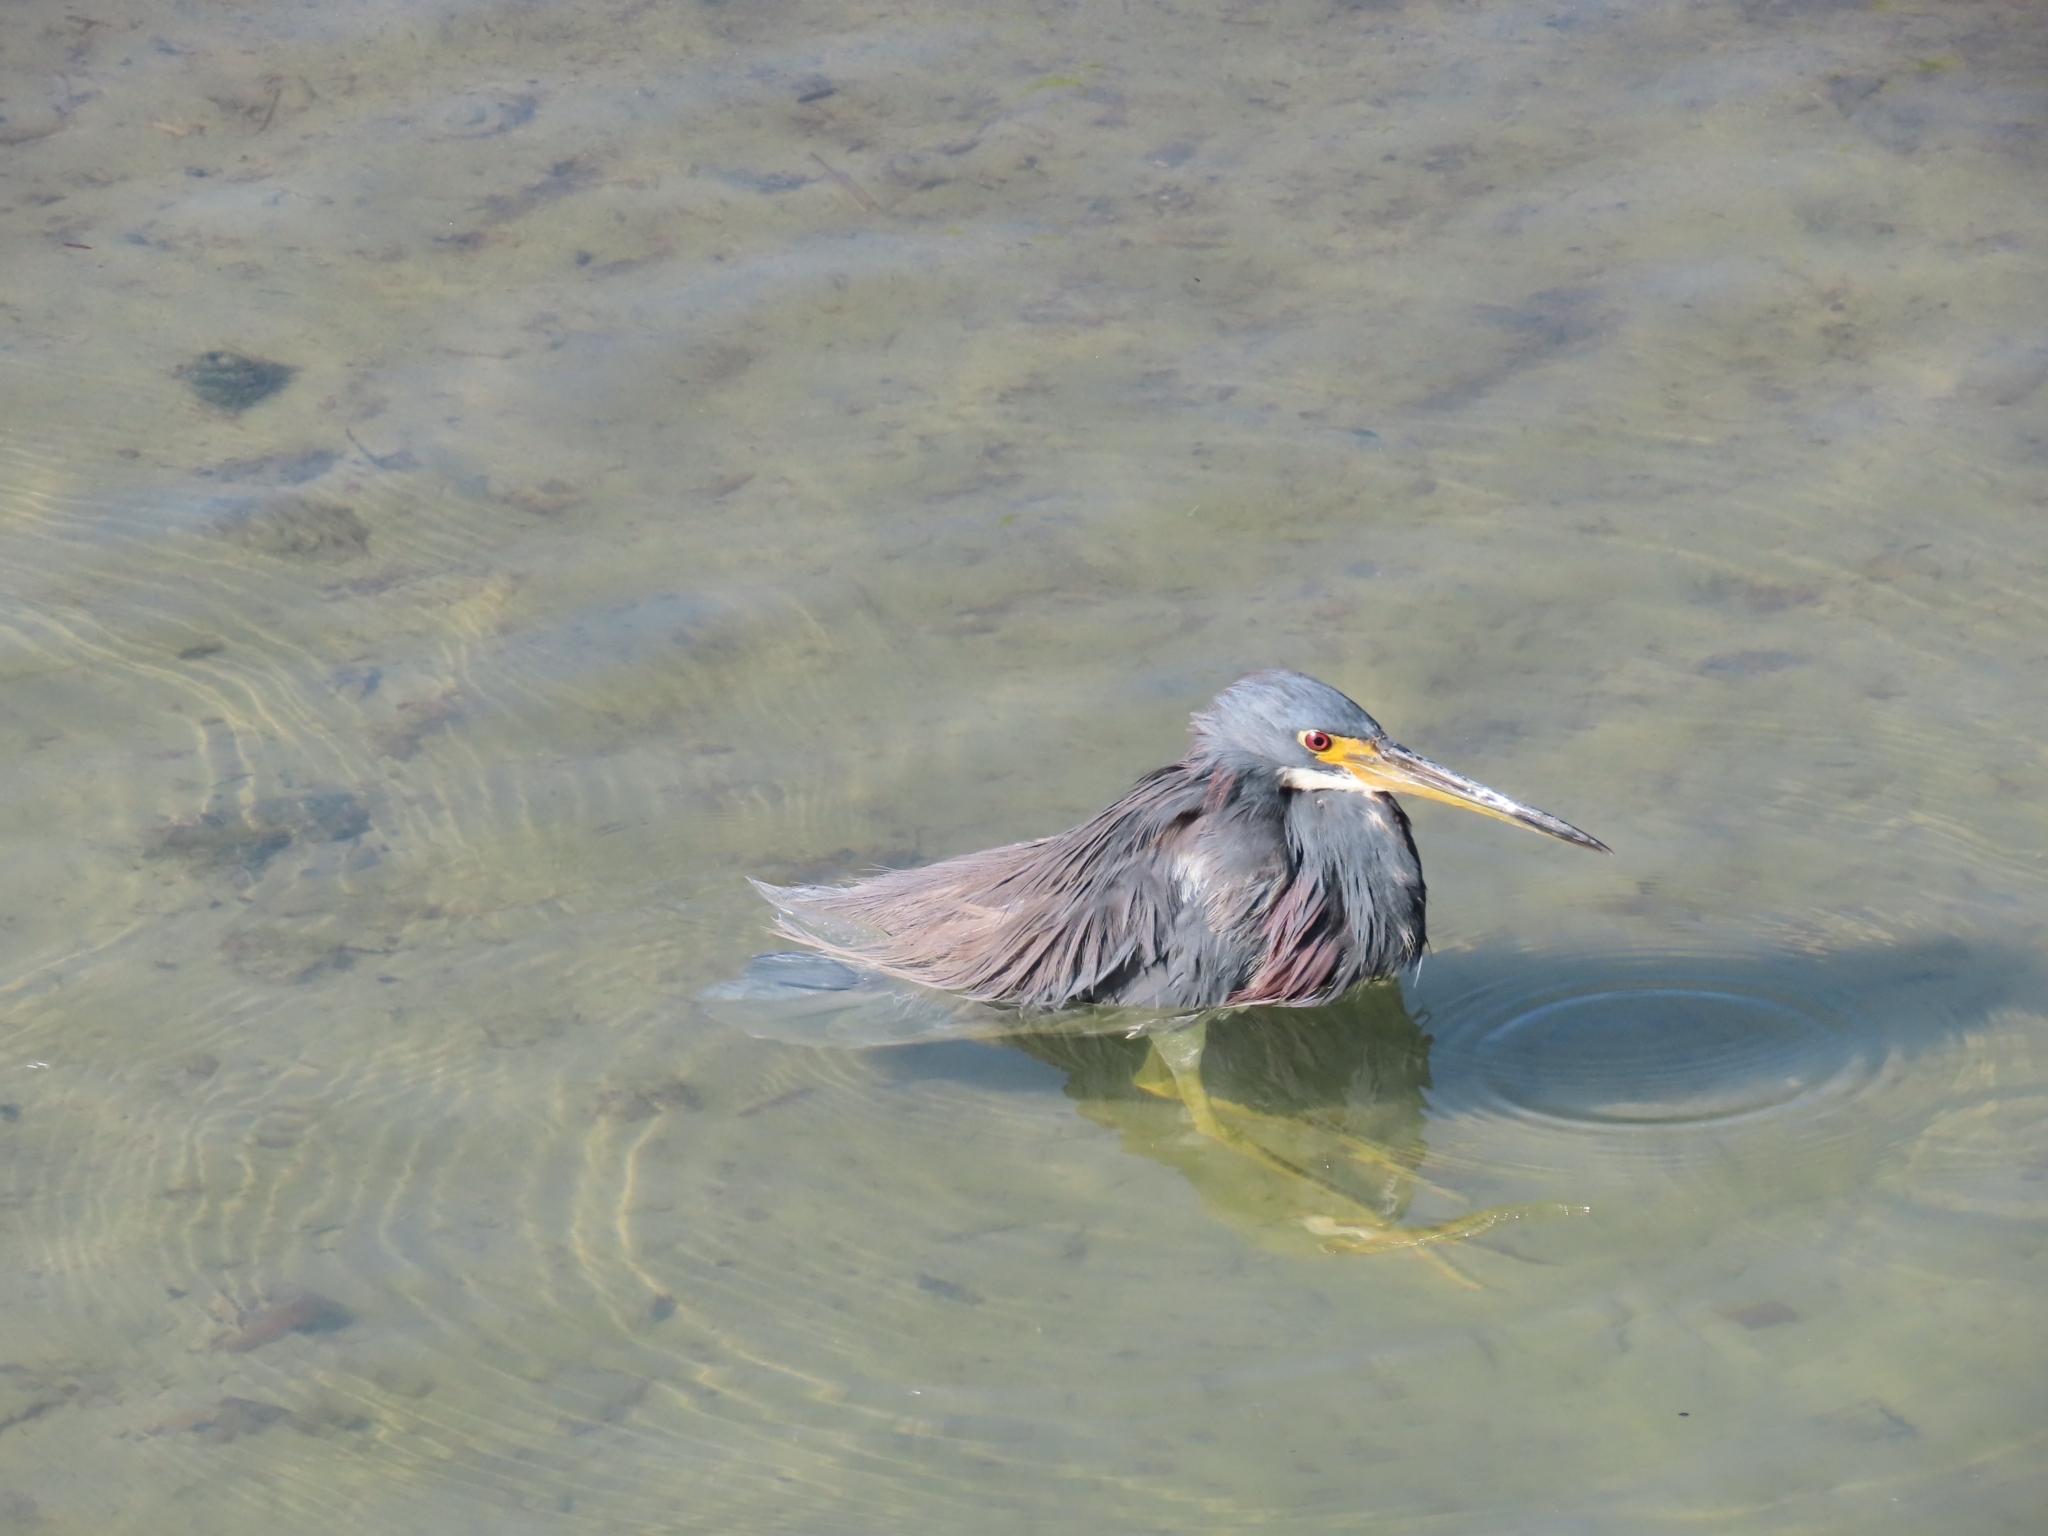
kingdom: Animalia
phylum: Chordata
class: Aves
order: Pelecaniformes
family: Ardeidae
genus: Egretta
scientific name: Egretta tricolor
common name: Tricolored heron
